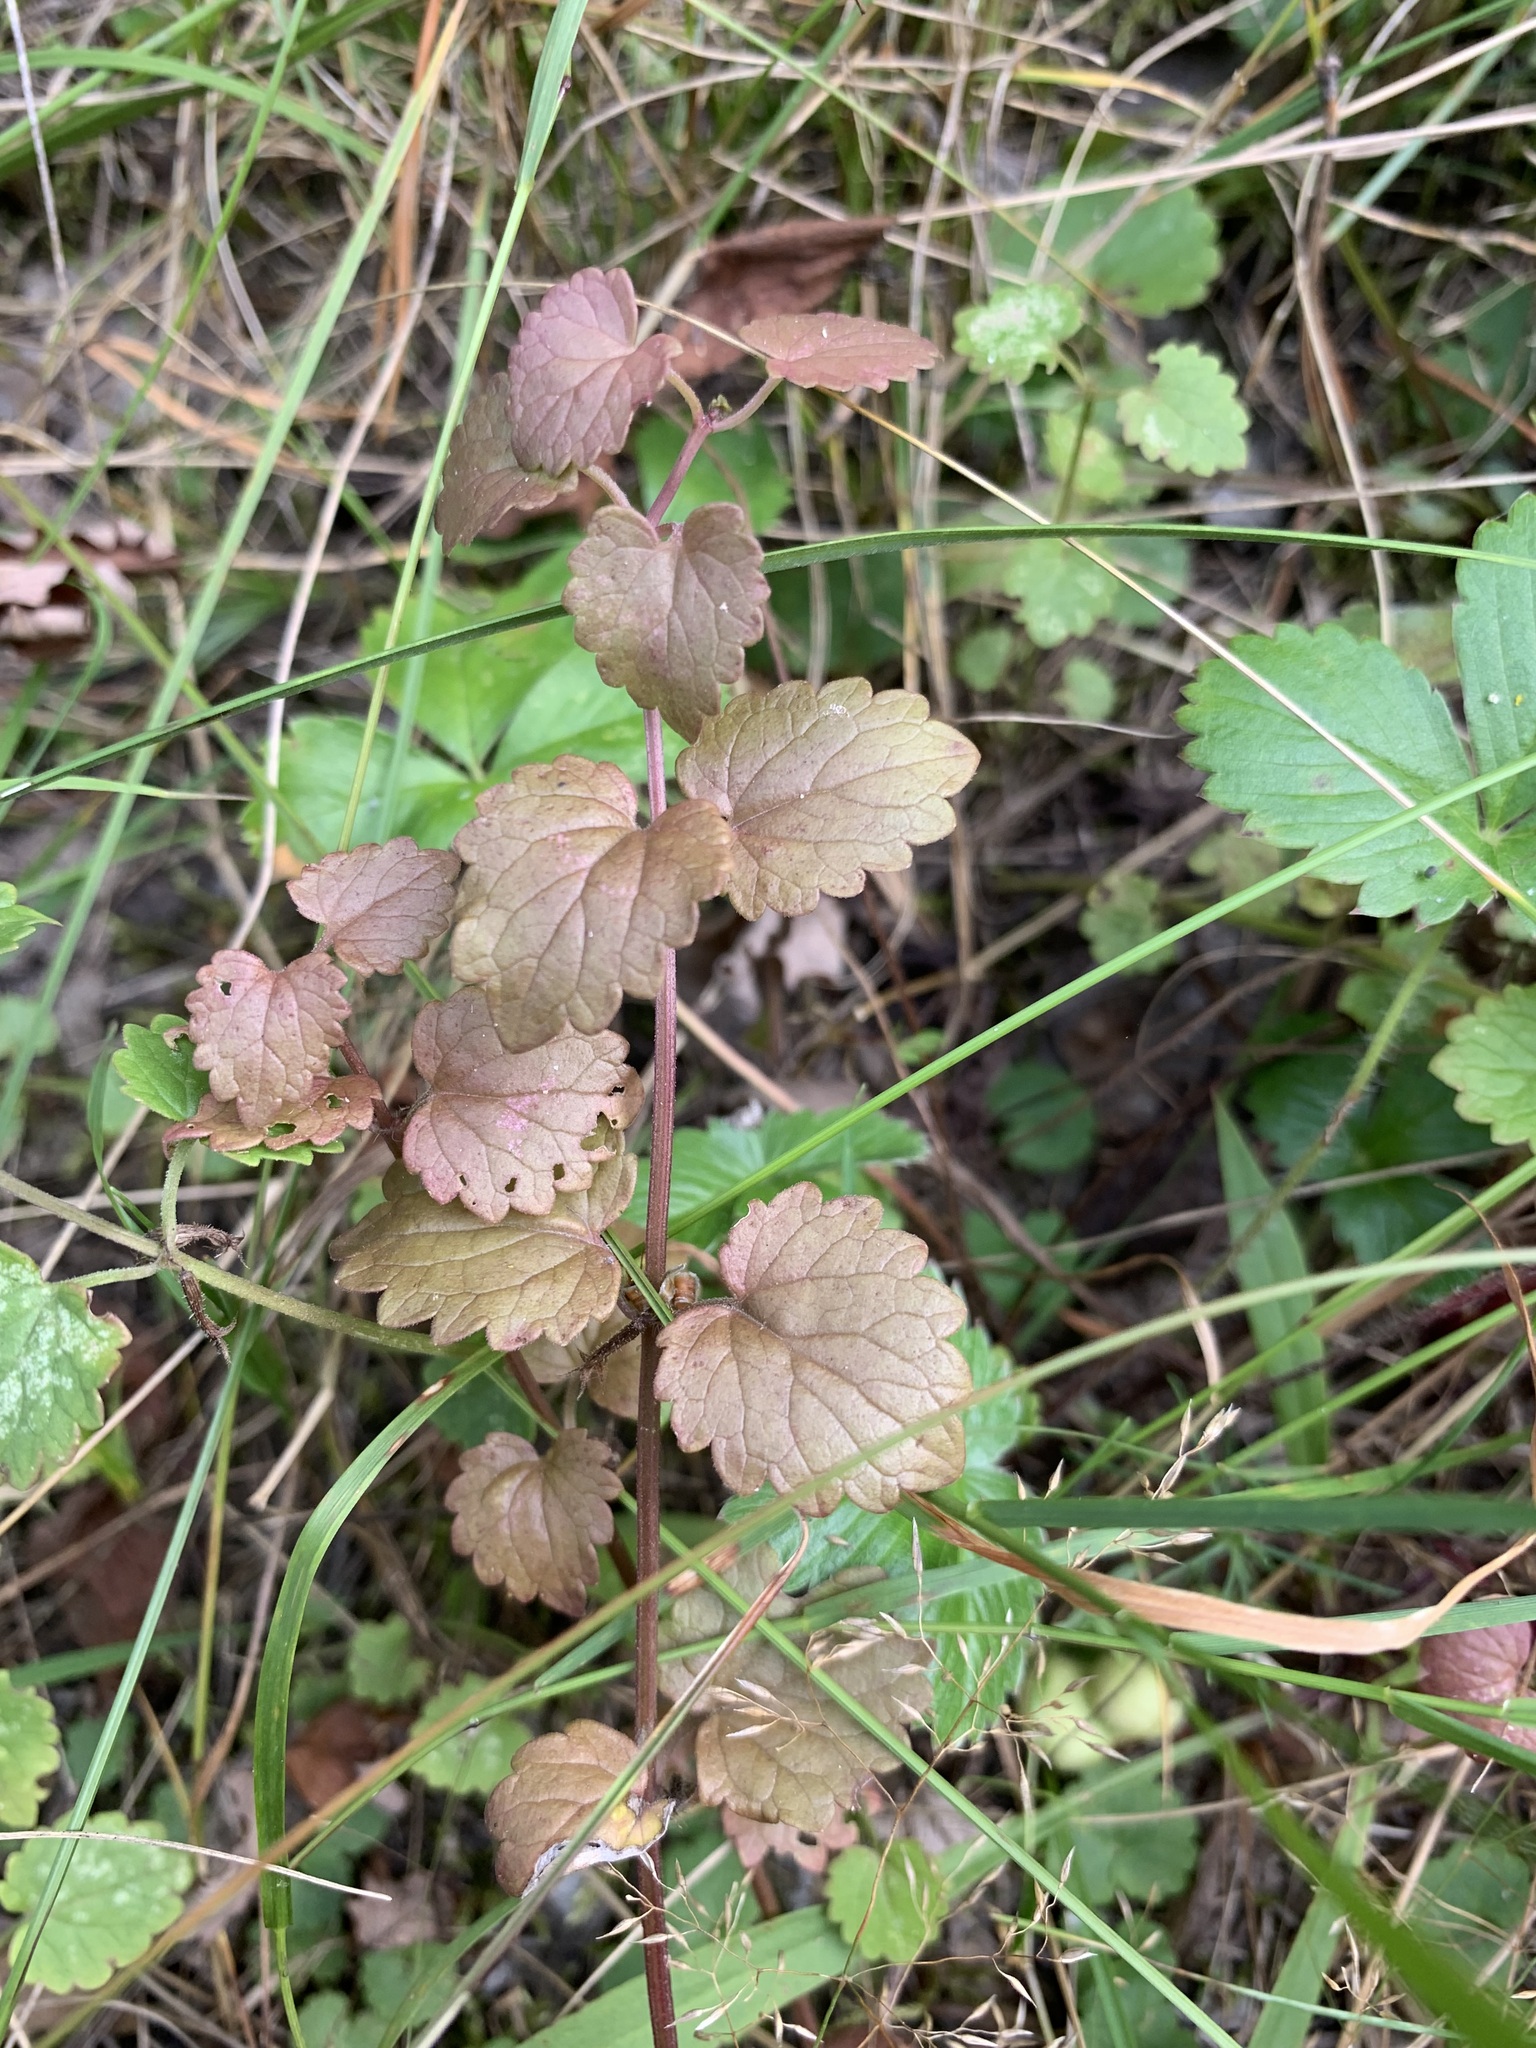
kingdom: Plantae
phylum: Tracheophyta
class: Magnoliopsida
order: Lamiales
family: Lamiaceae
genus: Glechoma
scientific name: Glechoma hederacea
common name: Ground ivy
